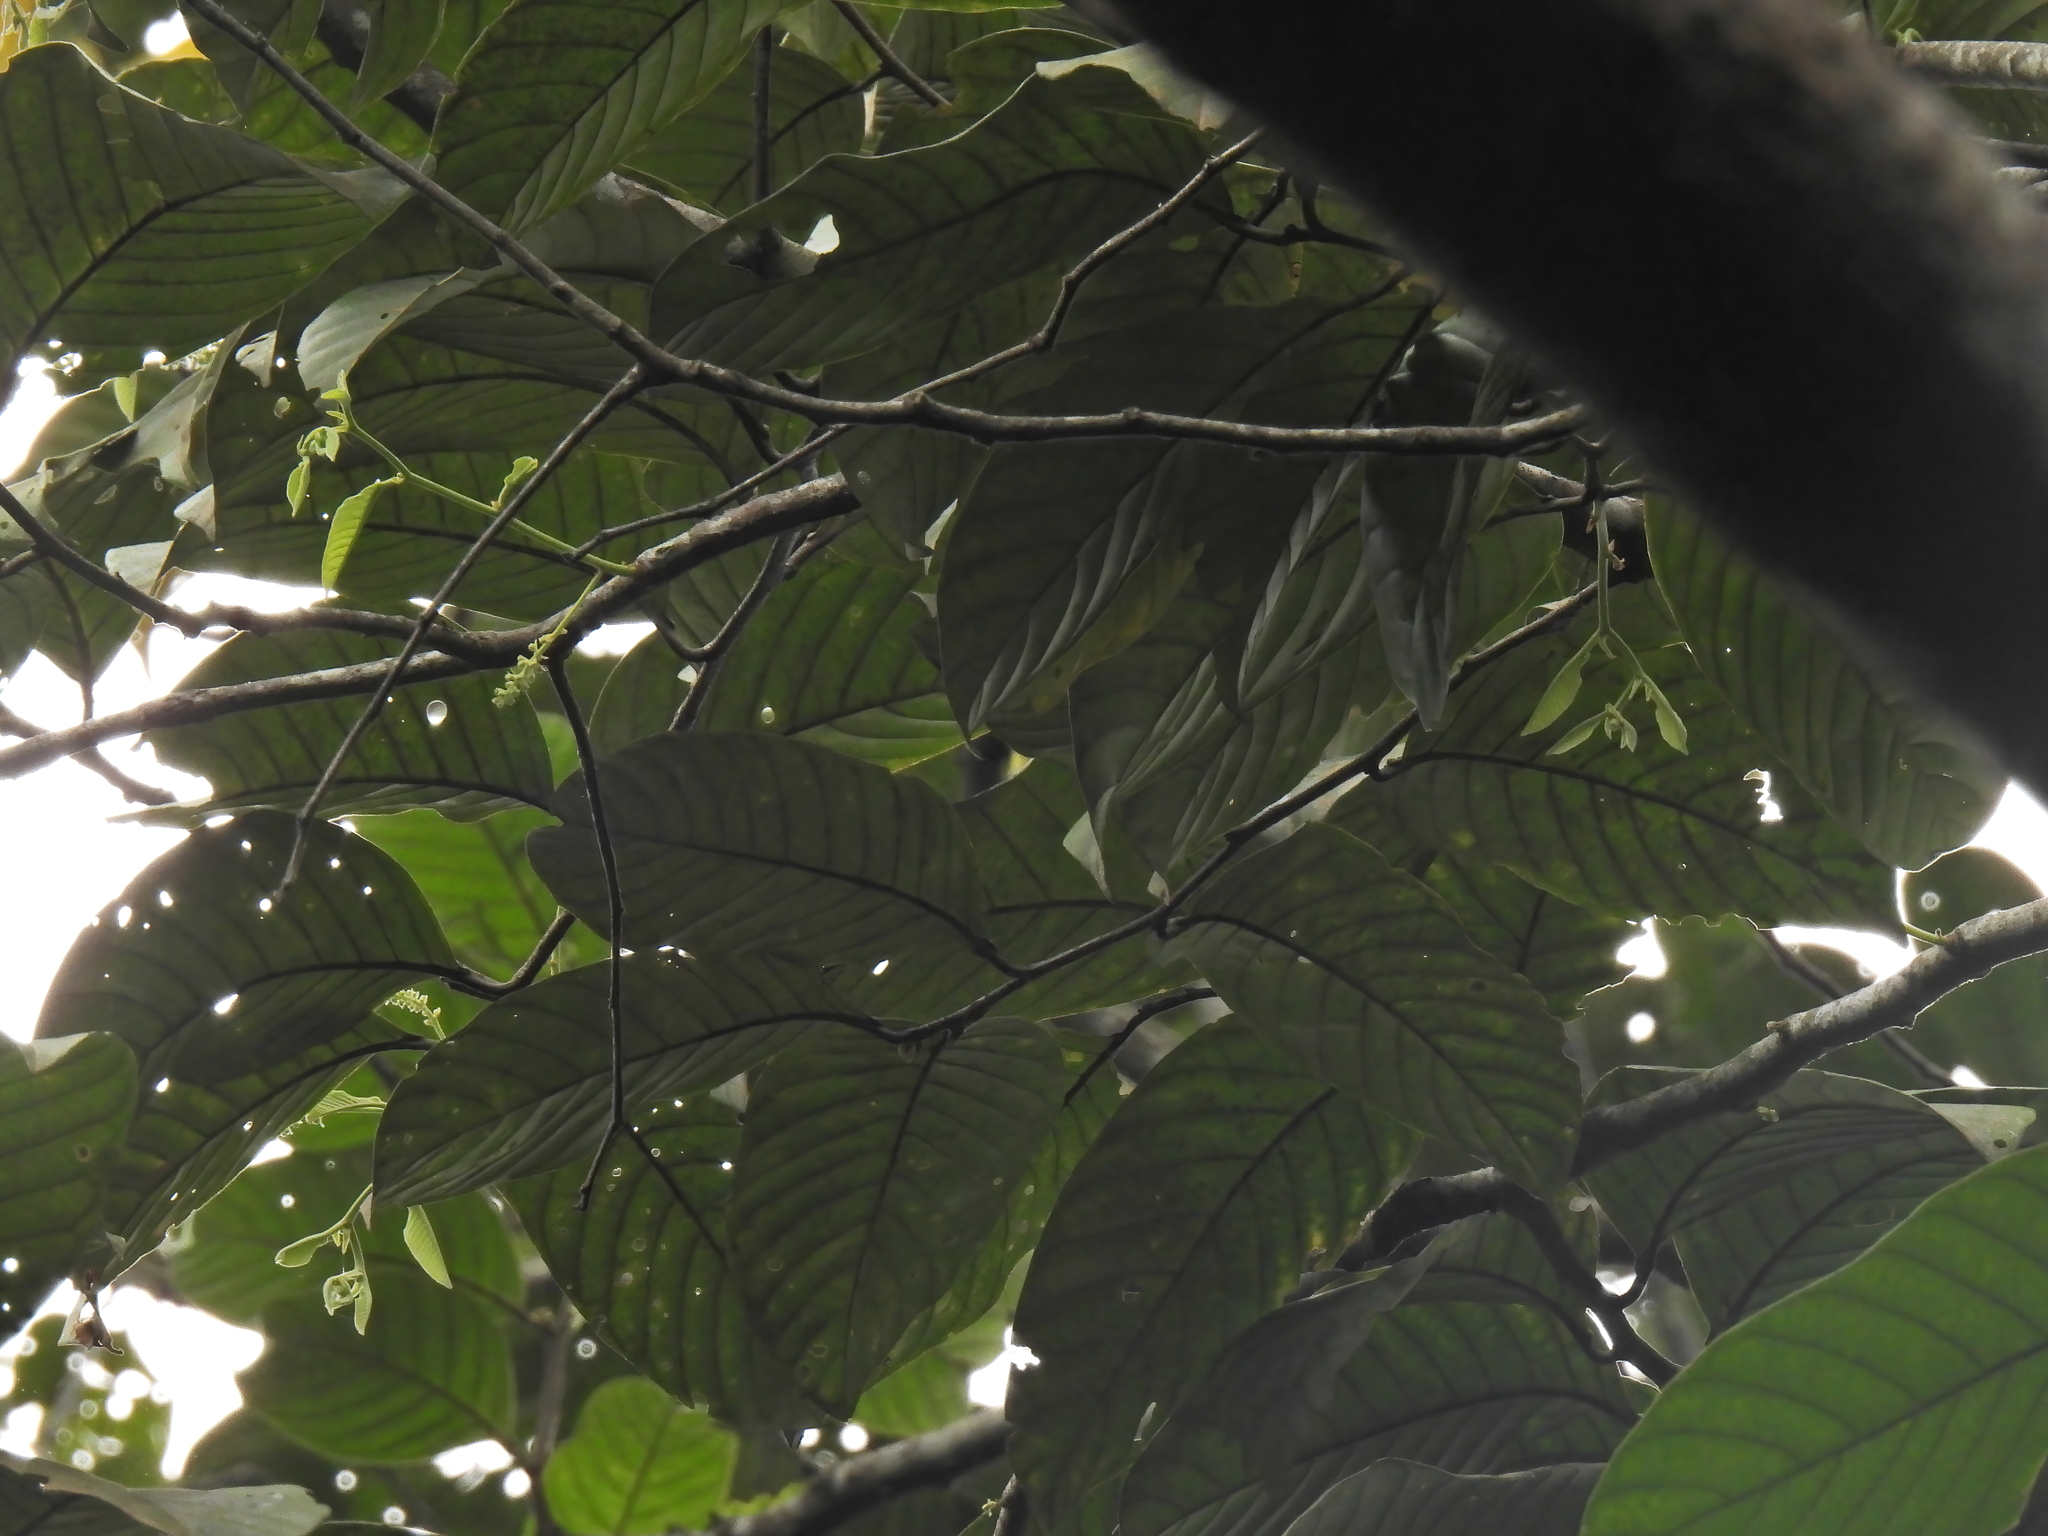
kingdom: Plantae
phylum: Tracheophyta
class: Magnoliopsida
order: Rosales
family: Rosaceae
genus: Prunus
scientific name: Prunus polystachya
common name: Bat laurel
